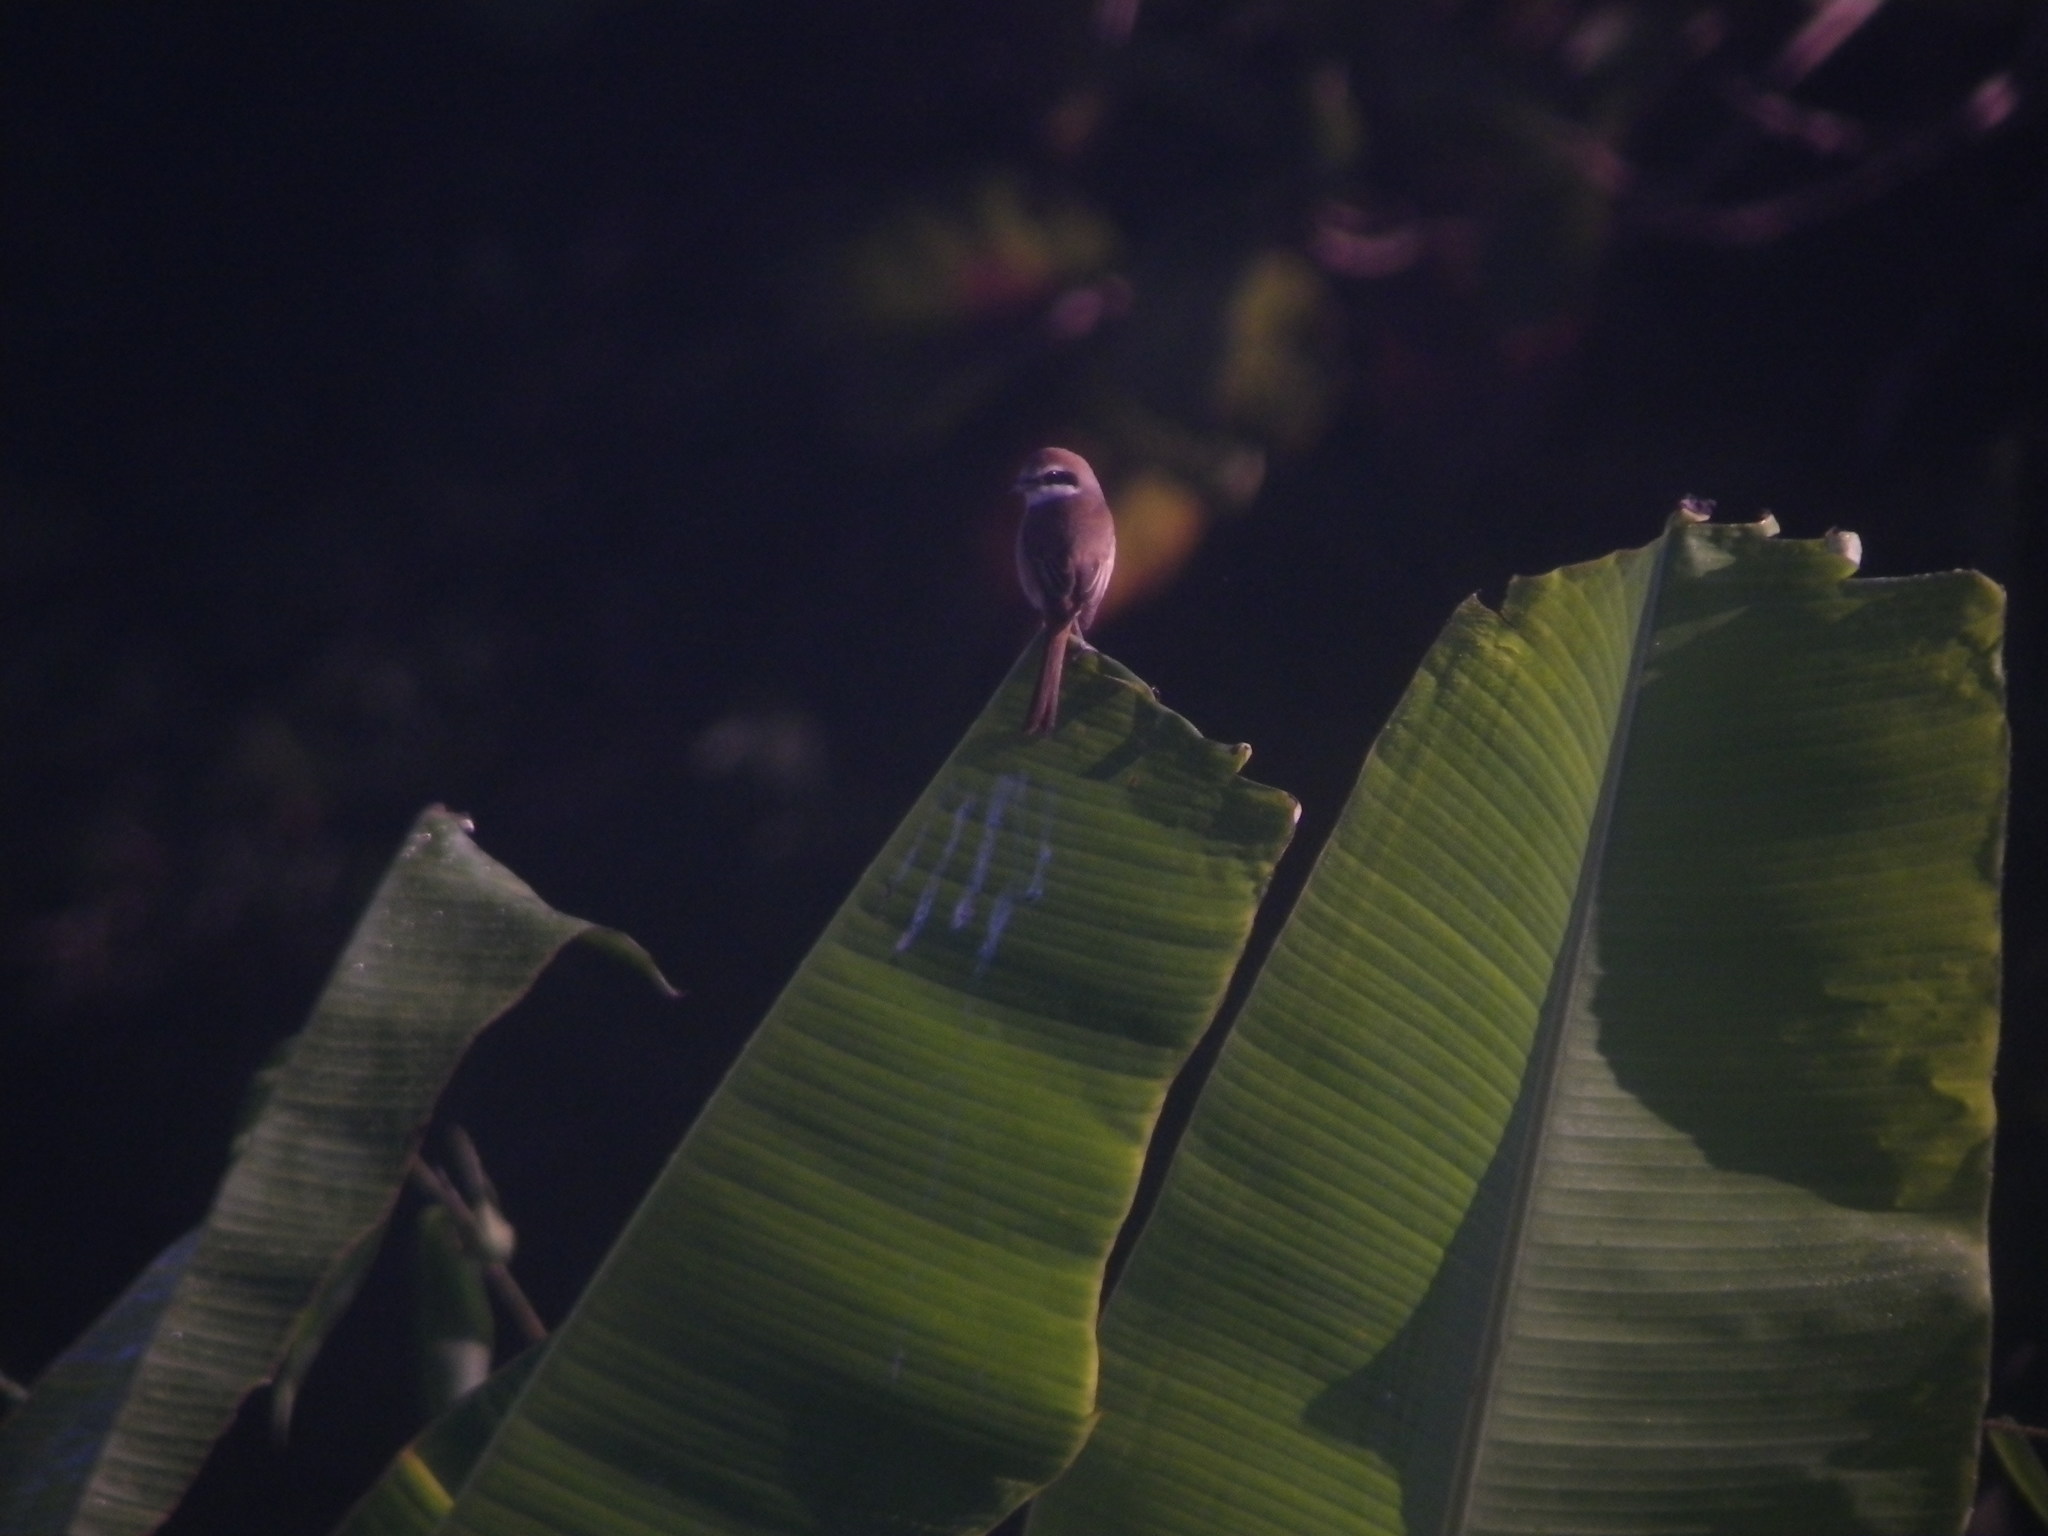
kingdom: Animalia
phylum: Chordata
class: Aves
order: Passeriformes
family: Laniidae
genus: Lanius
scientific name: Lanius cristatus
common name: Brown shrike
